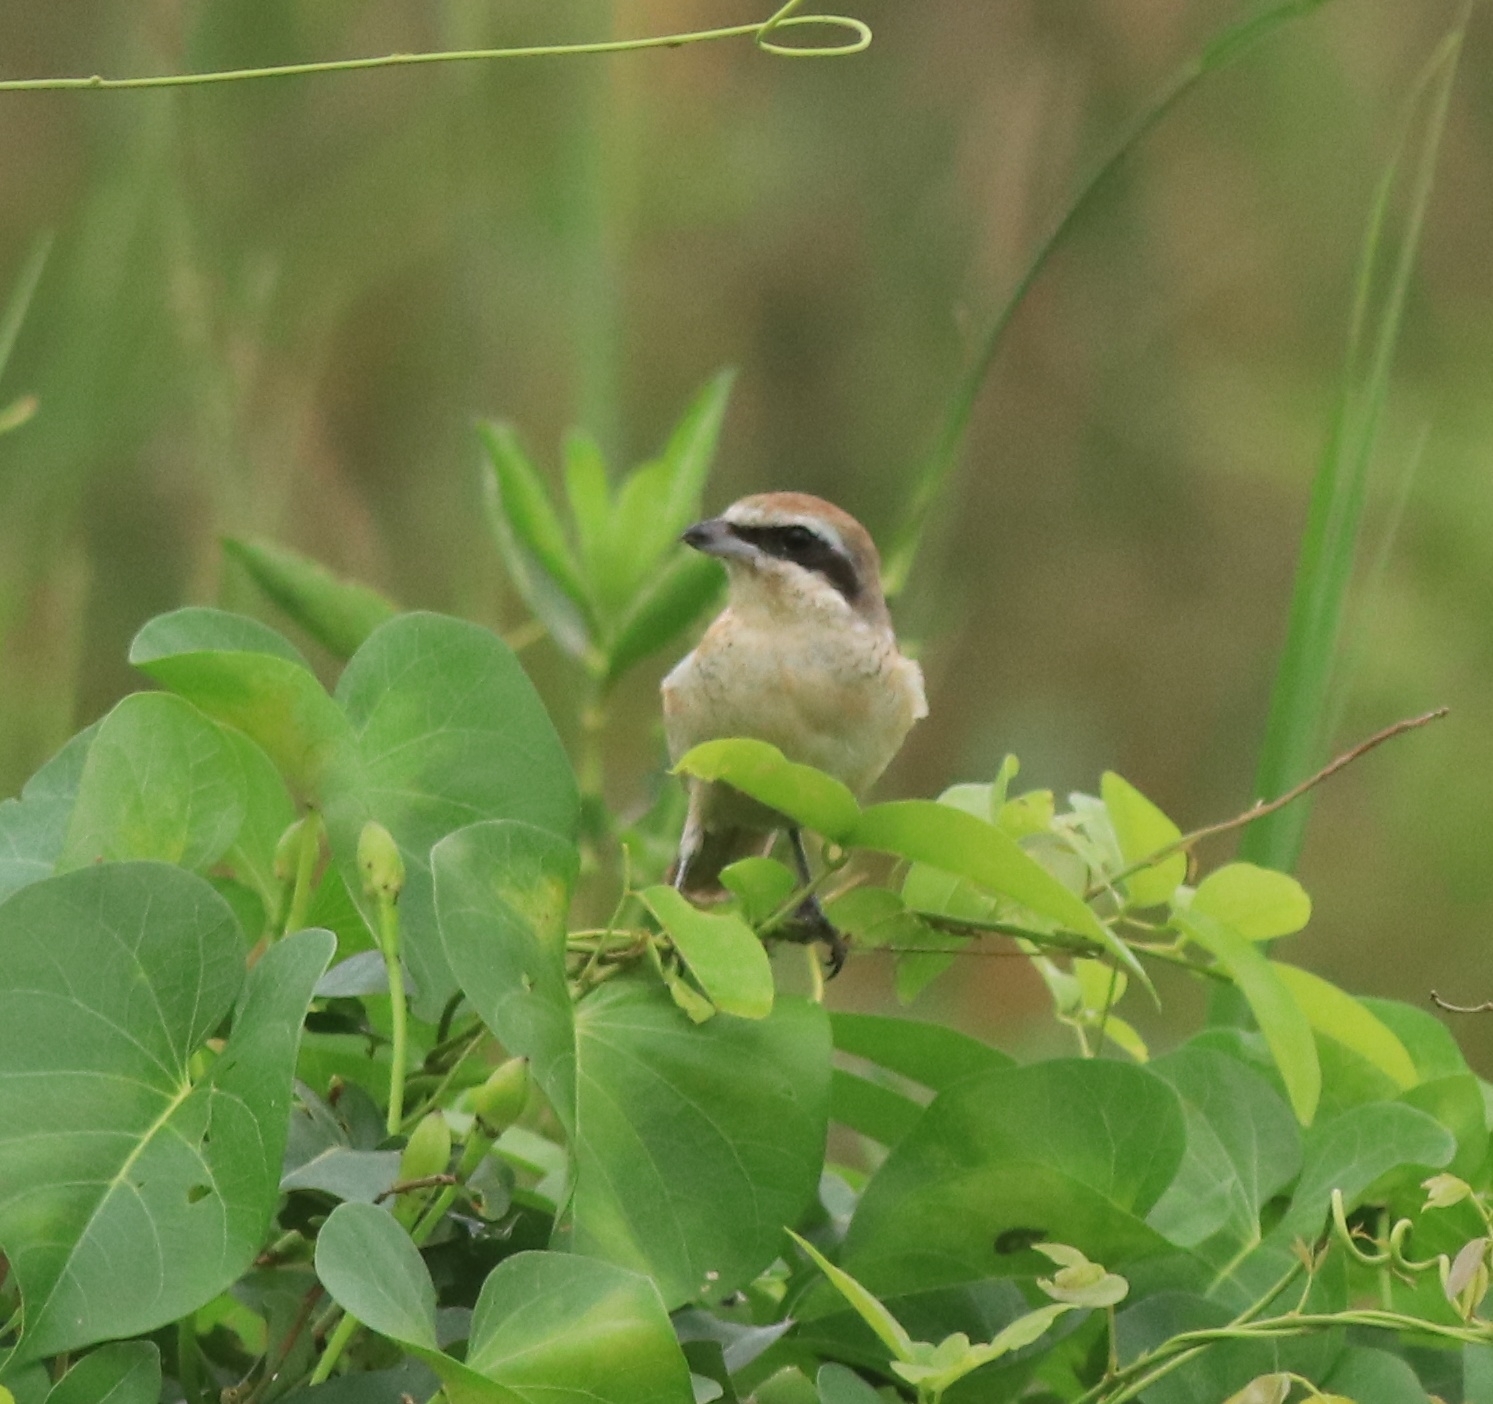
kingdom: Animalia
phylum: Chordata
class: Aves
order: Passeriformes
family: Laniidae
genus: Lanius
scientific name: Lanius cristatus
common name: Brown shrike
